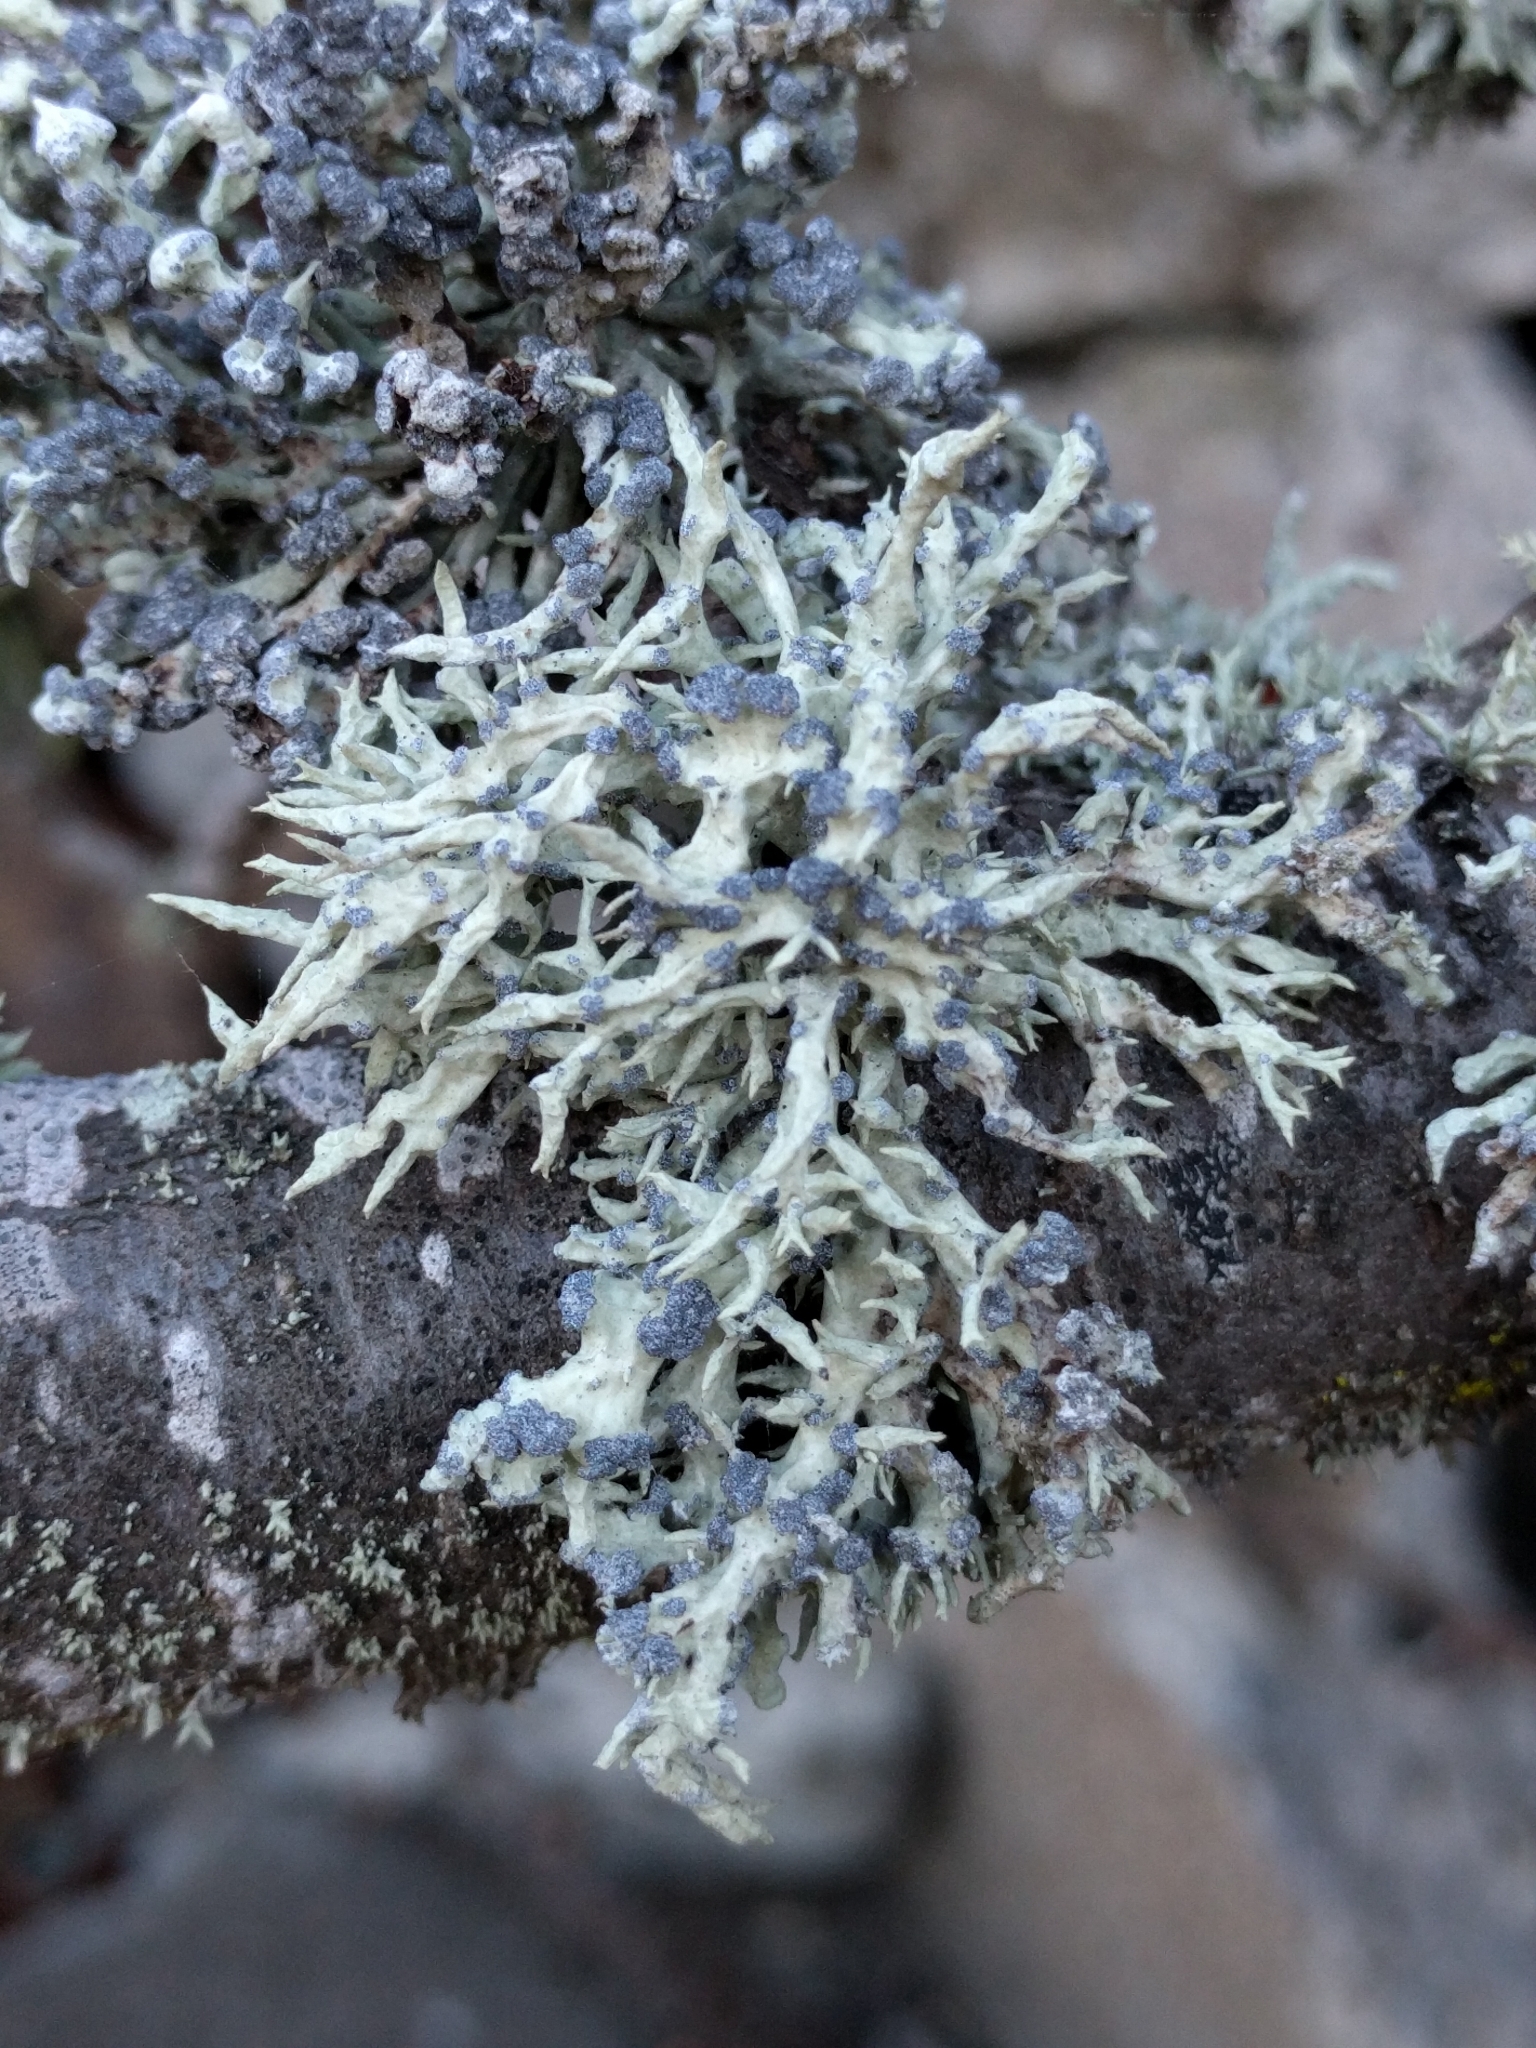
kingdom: Fungi
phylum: Ascomycota
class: Lecanoromycetes
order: Lecanorales
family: Ramalinaceae
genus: Niebla
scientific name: Niebla cephalota
